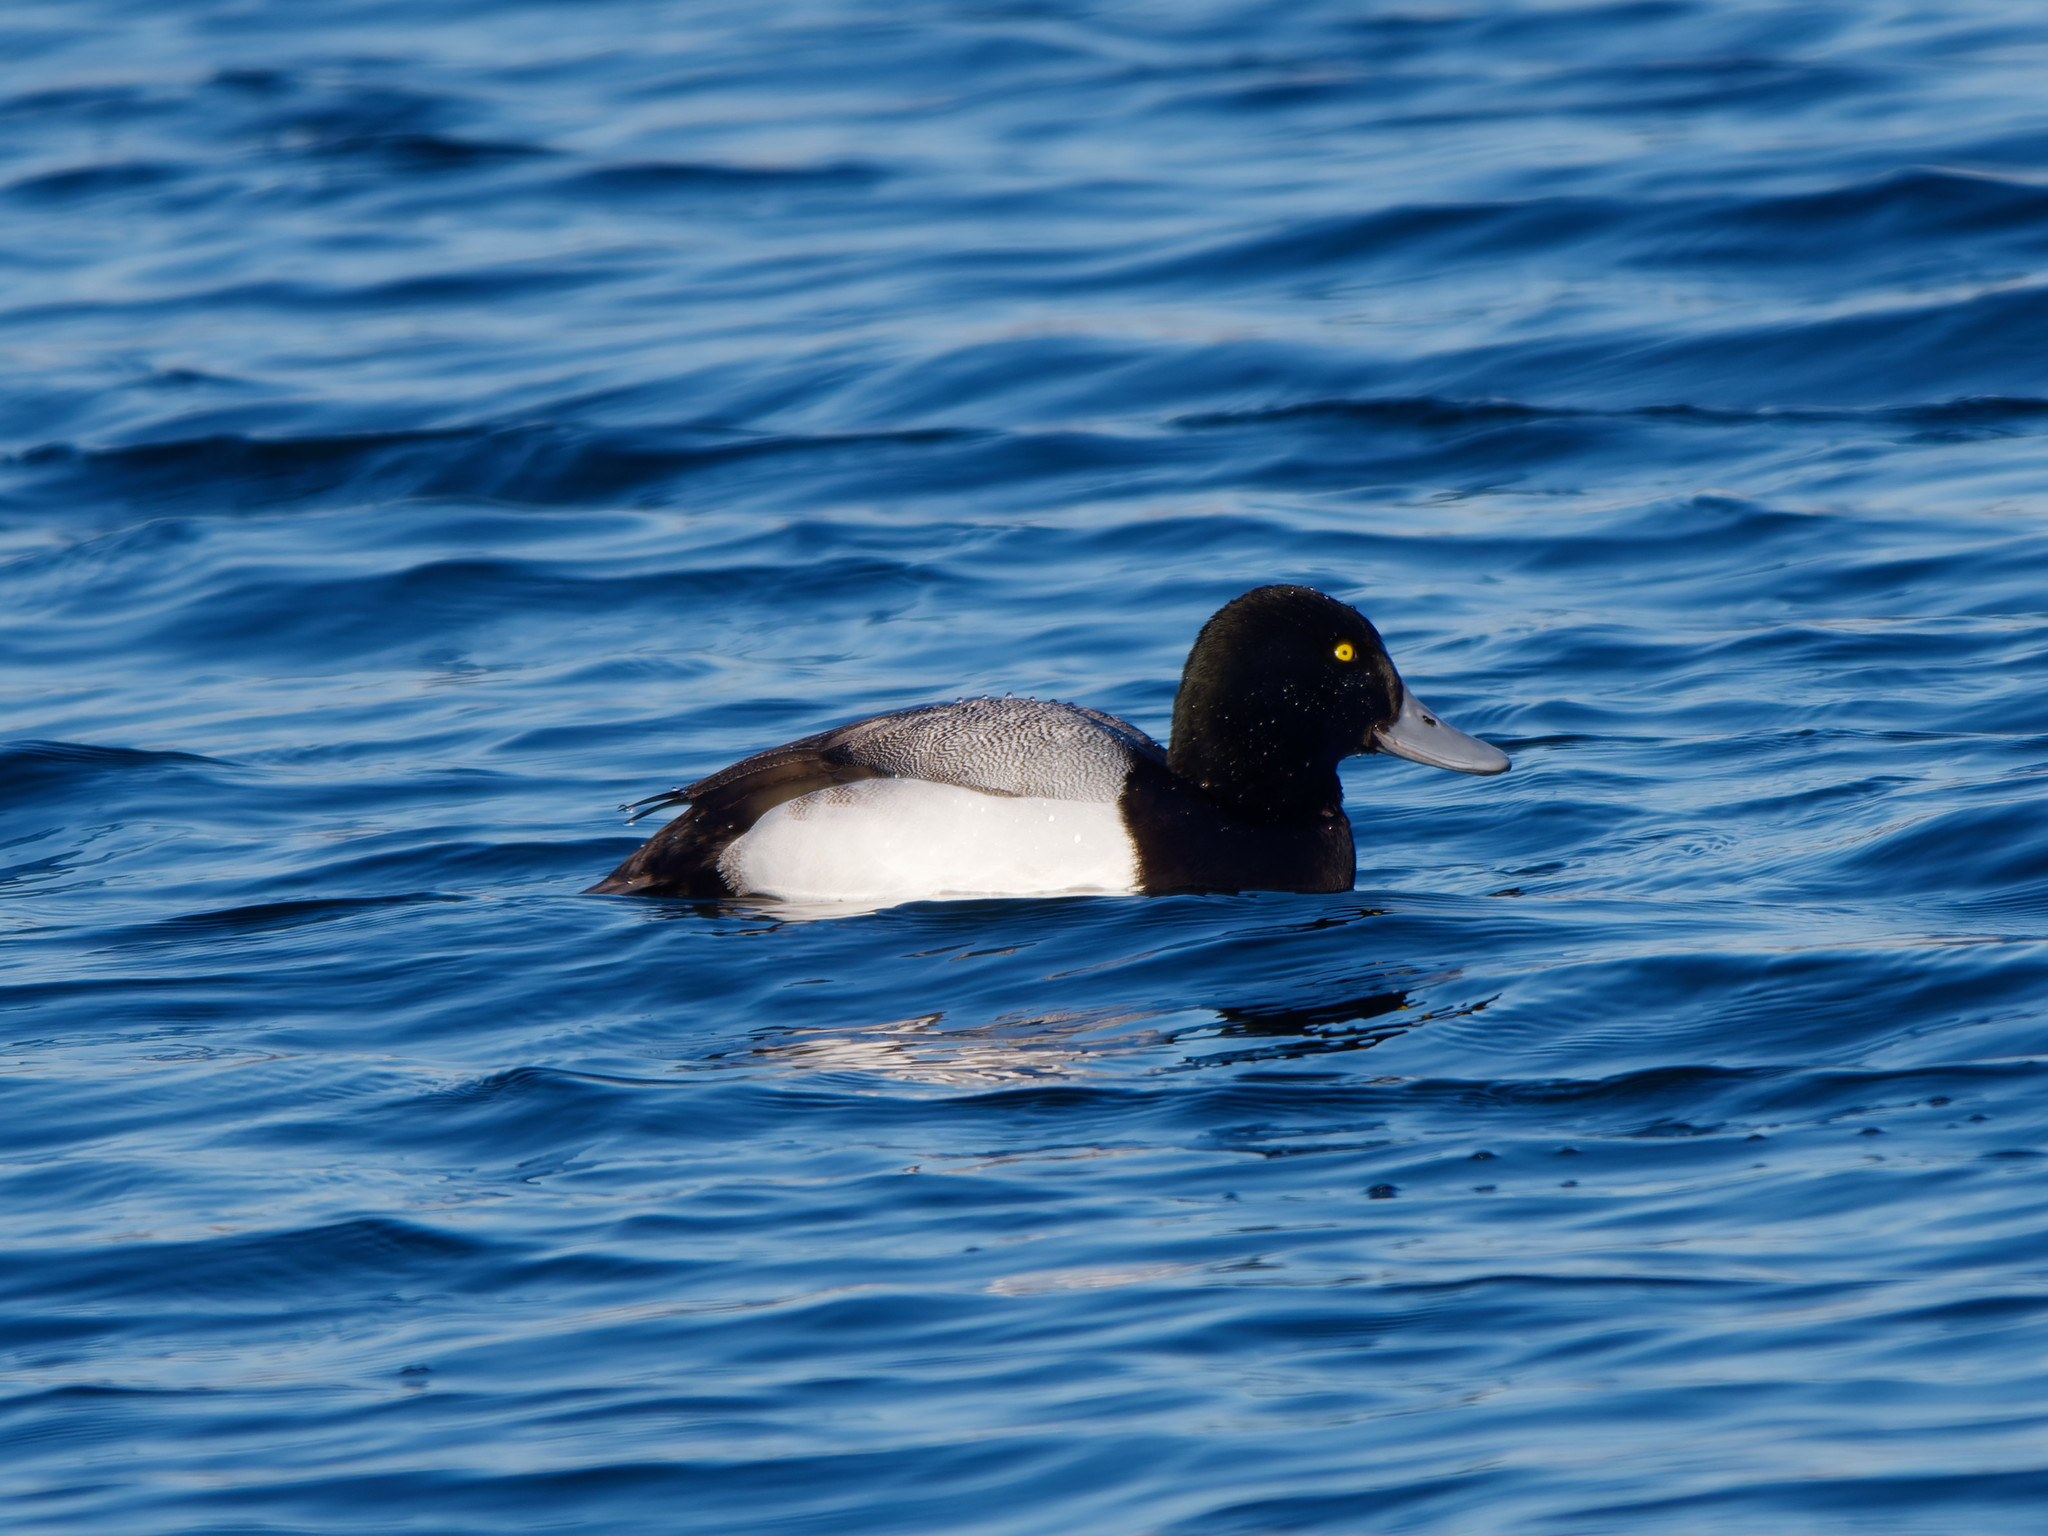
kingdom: Animalia
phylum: Chordata
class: Aves
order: Anseriformes
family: Anatidae
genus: Aythya
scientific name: Aythya marila
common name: Greater scaup
